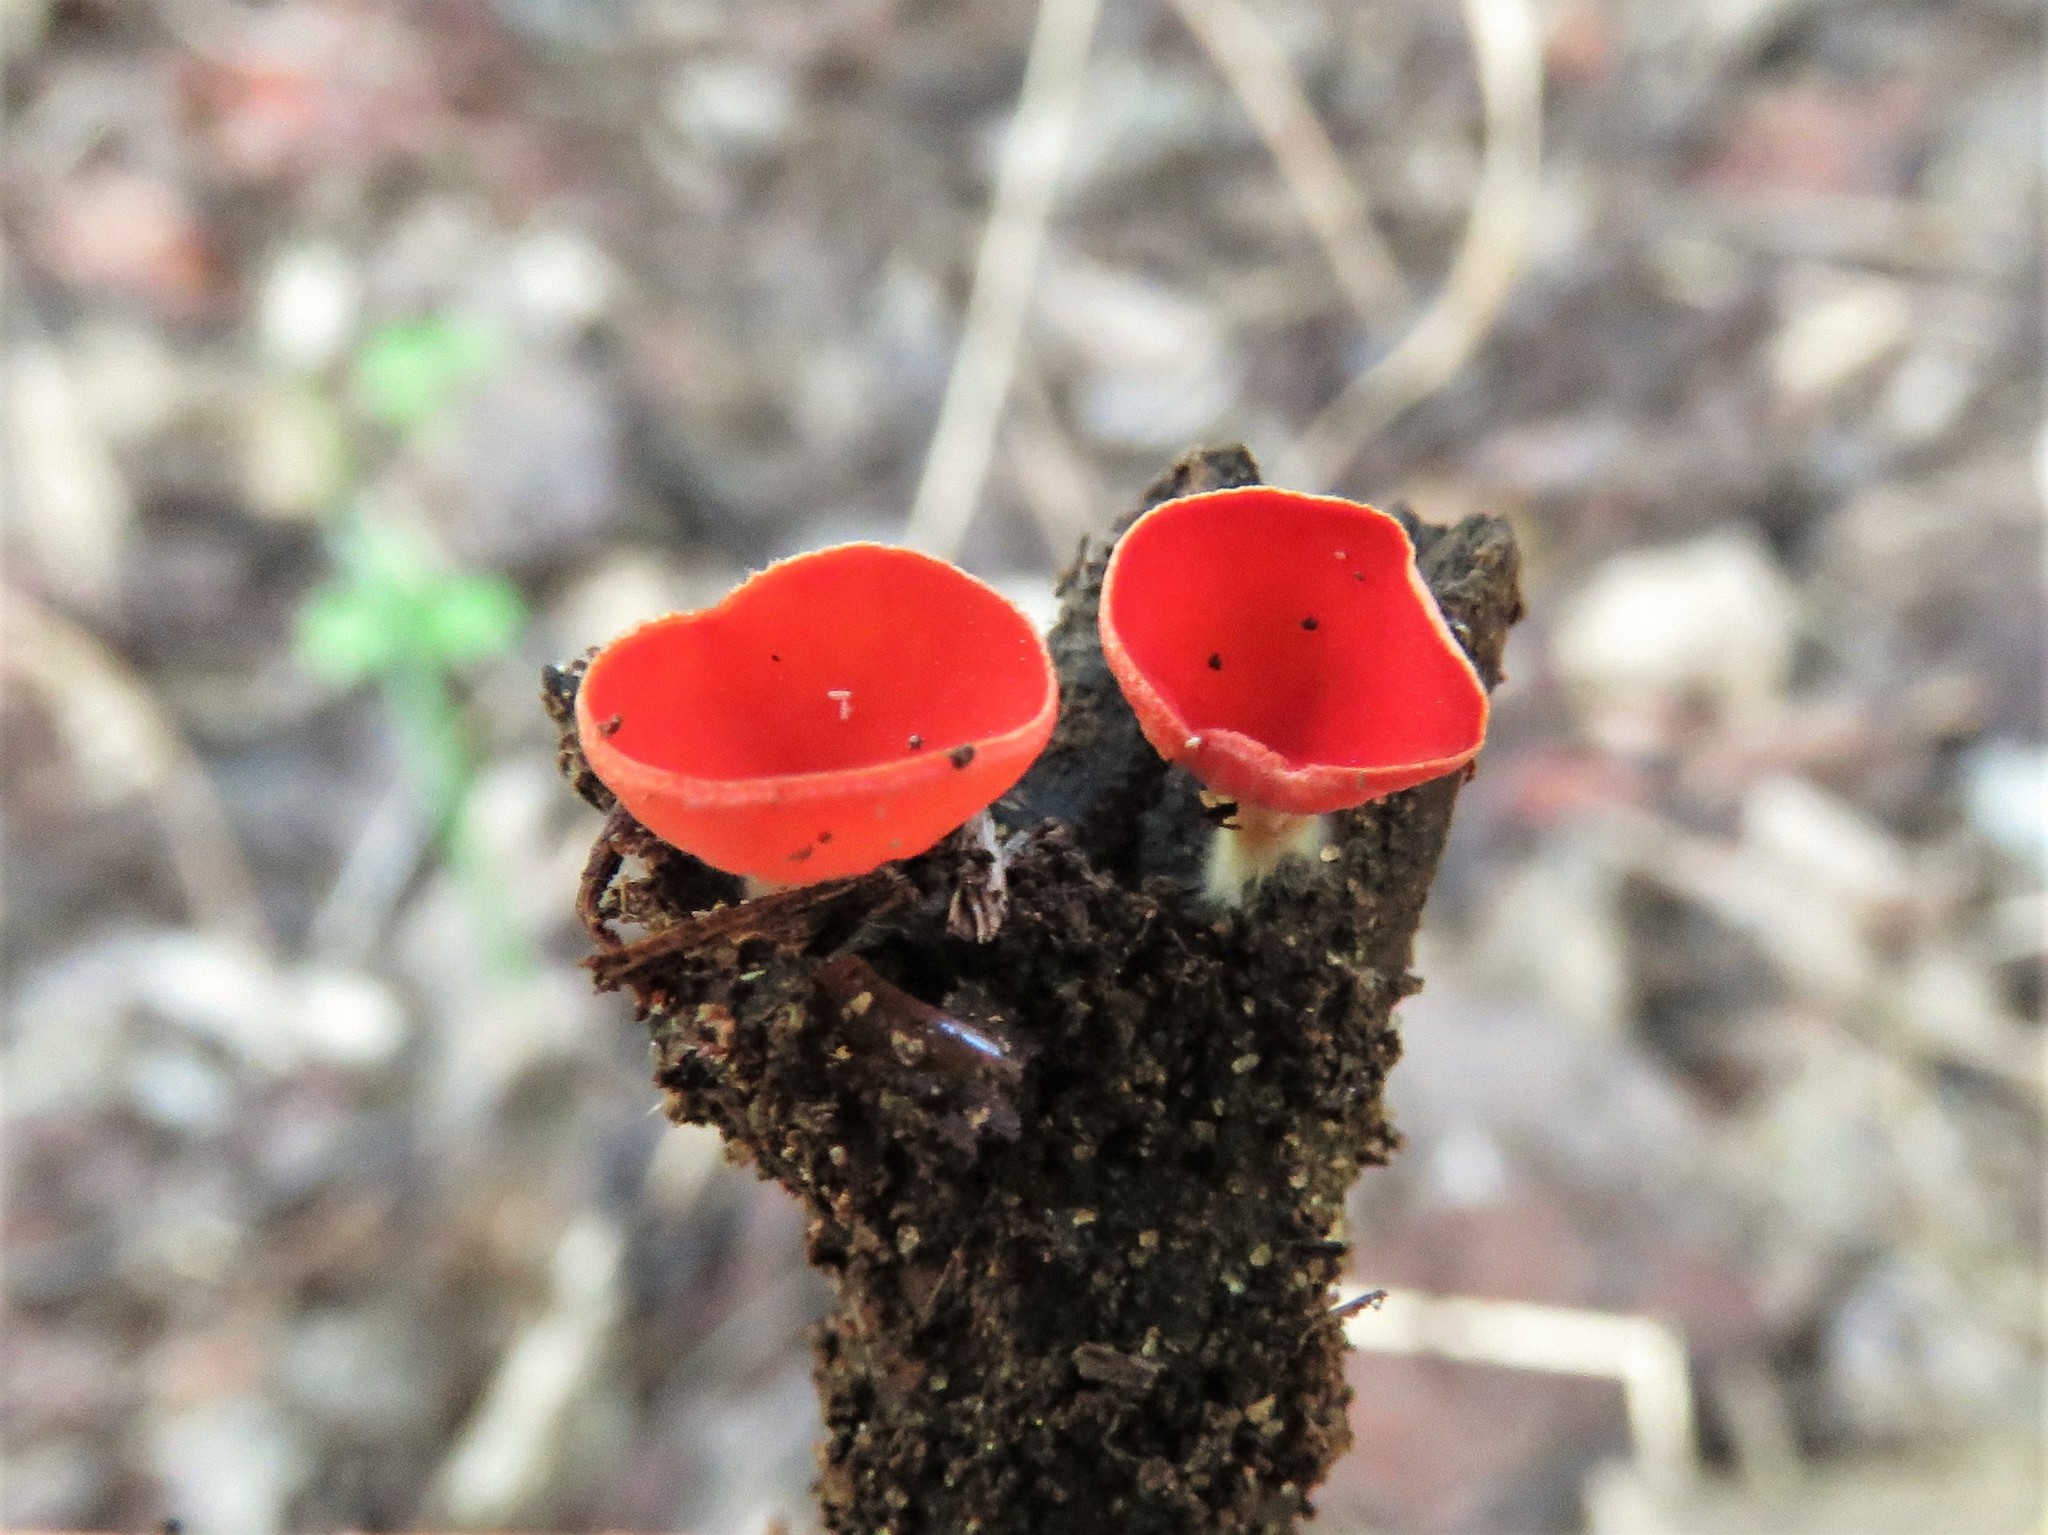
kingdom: Fungi
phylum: Ascomycota
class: Pezizomycetes
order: Pezizales
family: Sarcoscyphaceae
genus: Sarcoscypha
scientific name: Sarcoscypha occidentalis
